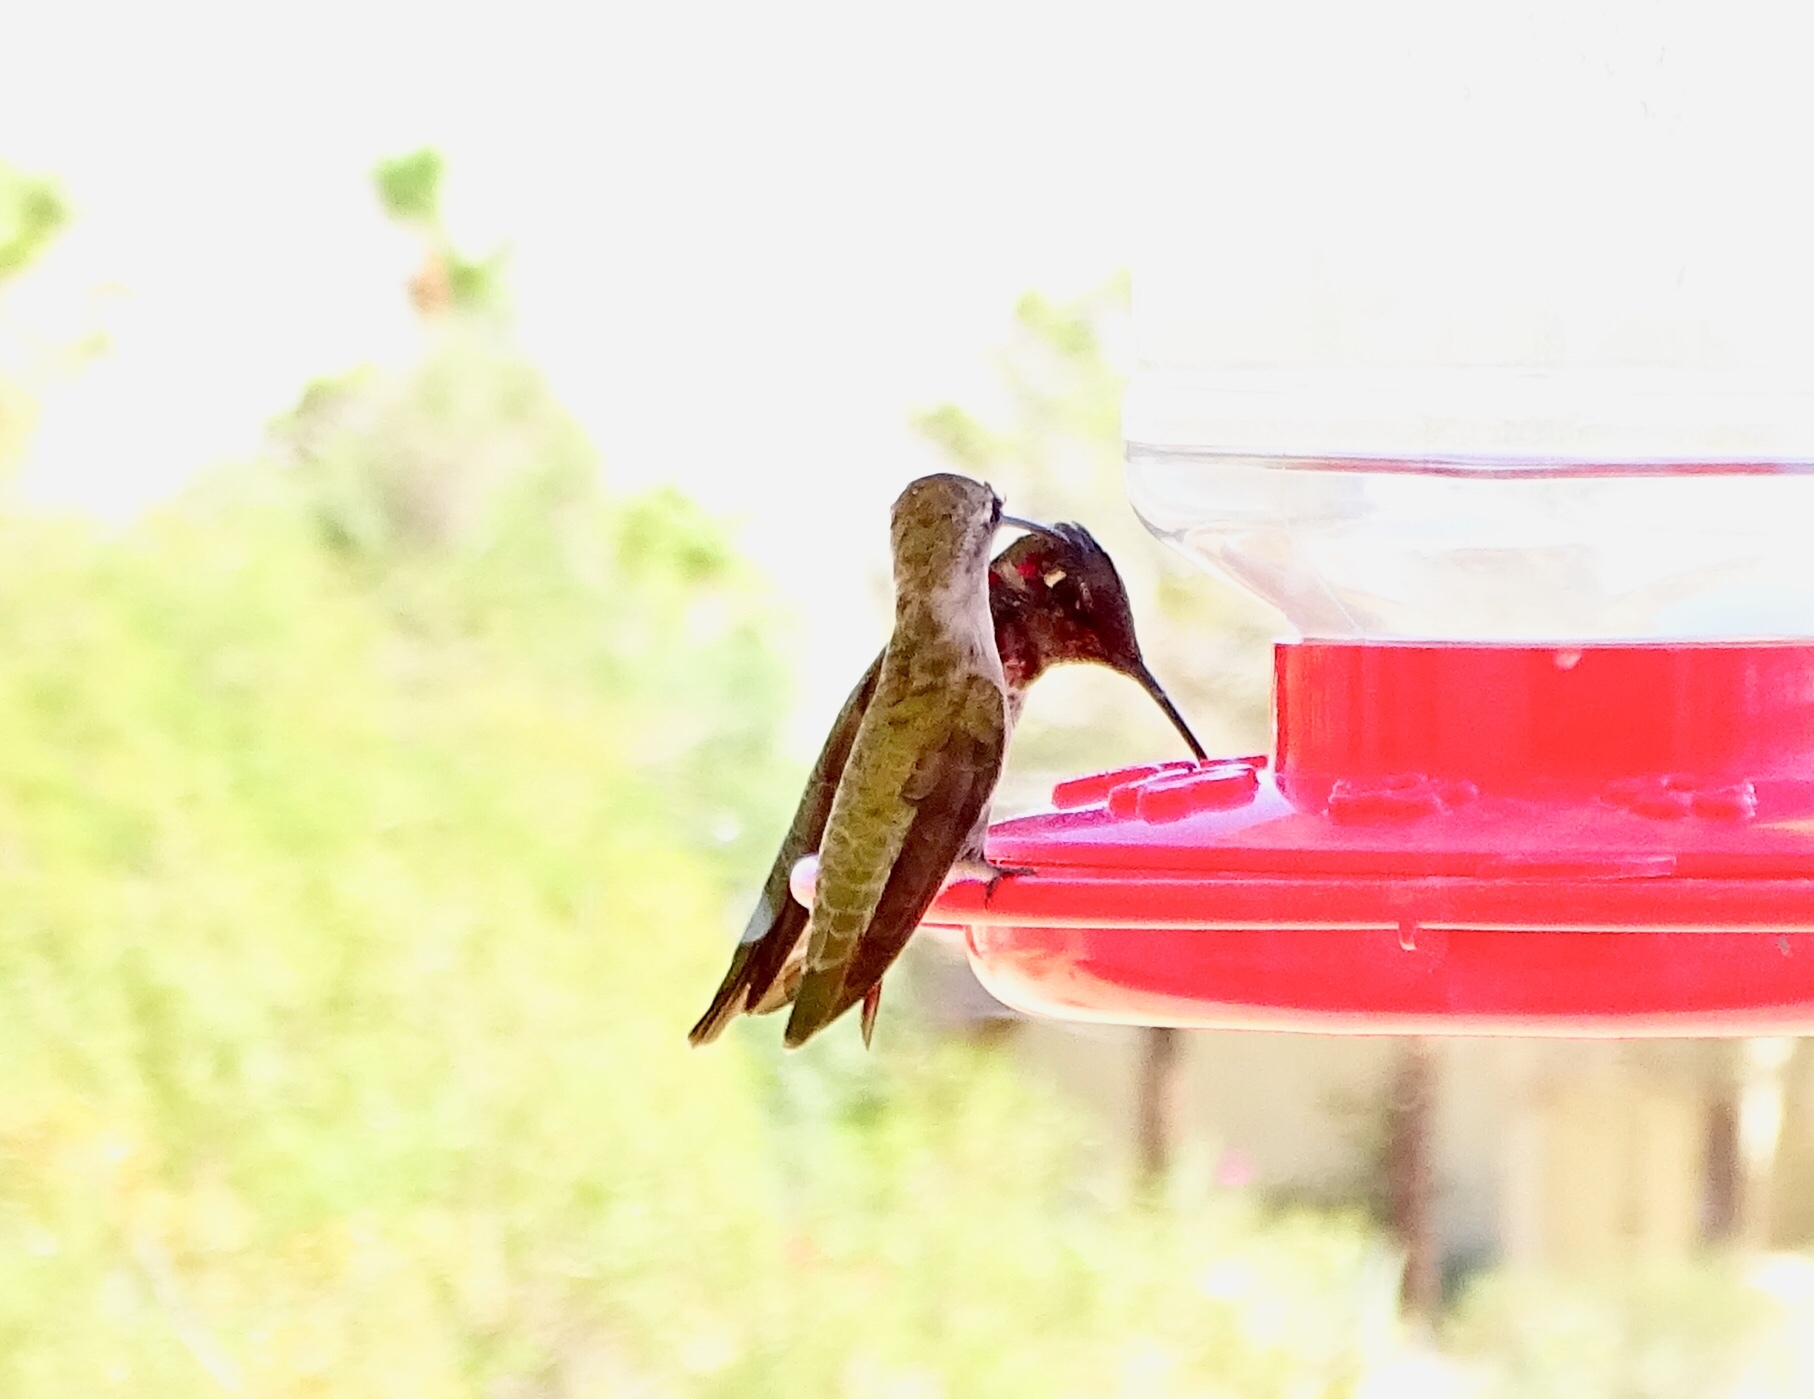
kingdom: Animalia
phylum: Chordata
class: Aves
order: Apodiformes
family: Trochilidae
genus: Calypte
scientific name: Calypte costae
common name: Costa's hummingbird
